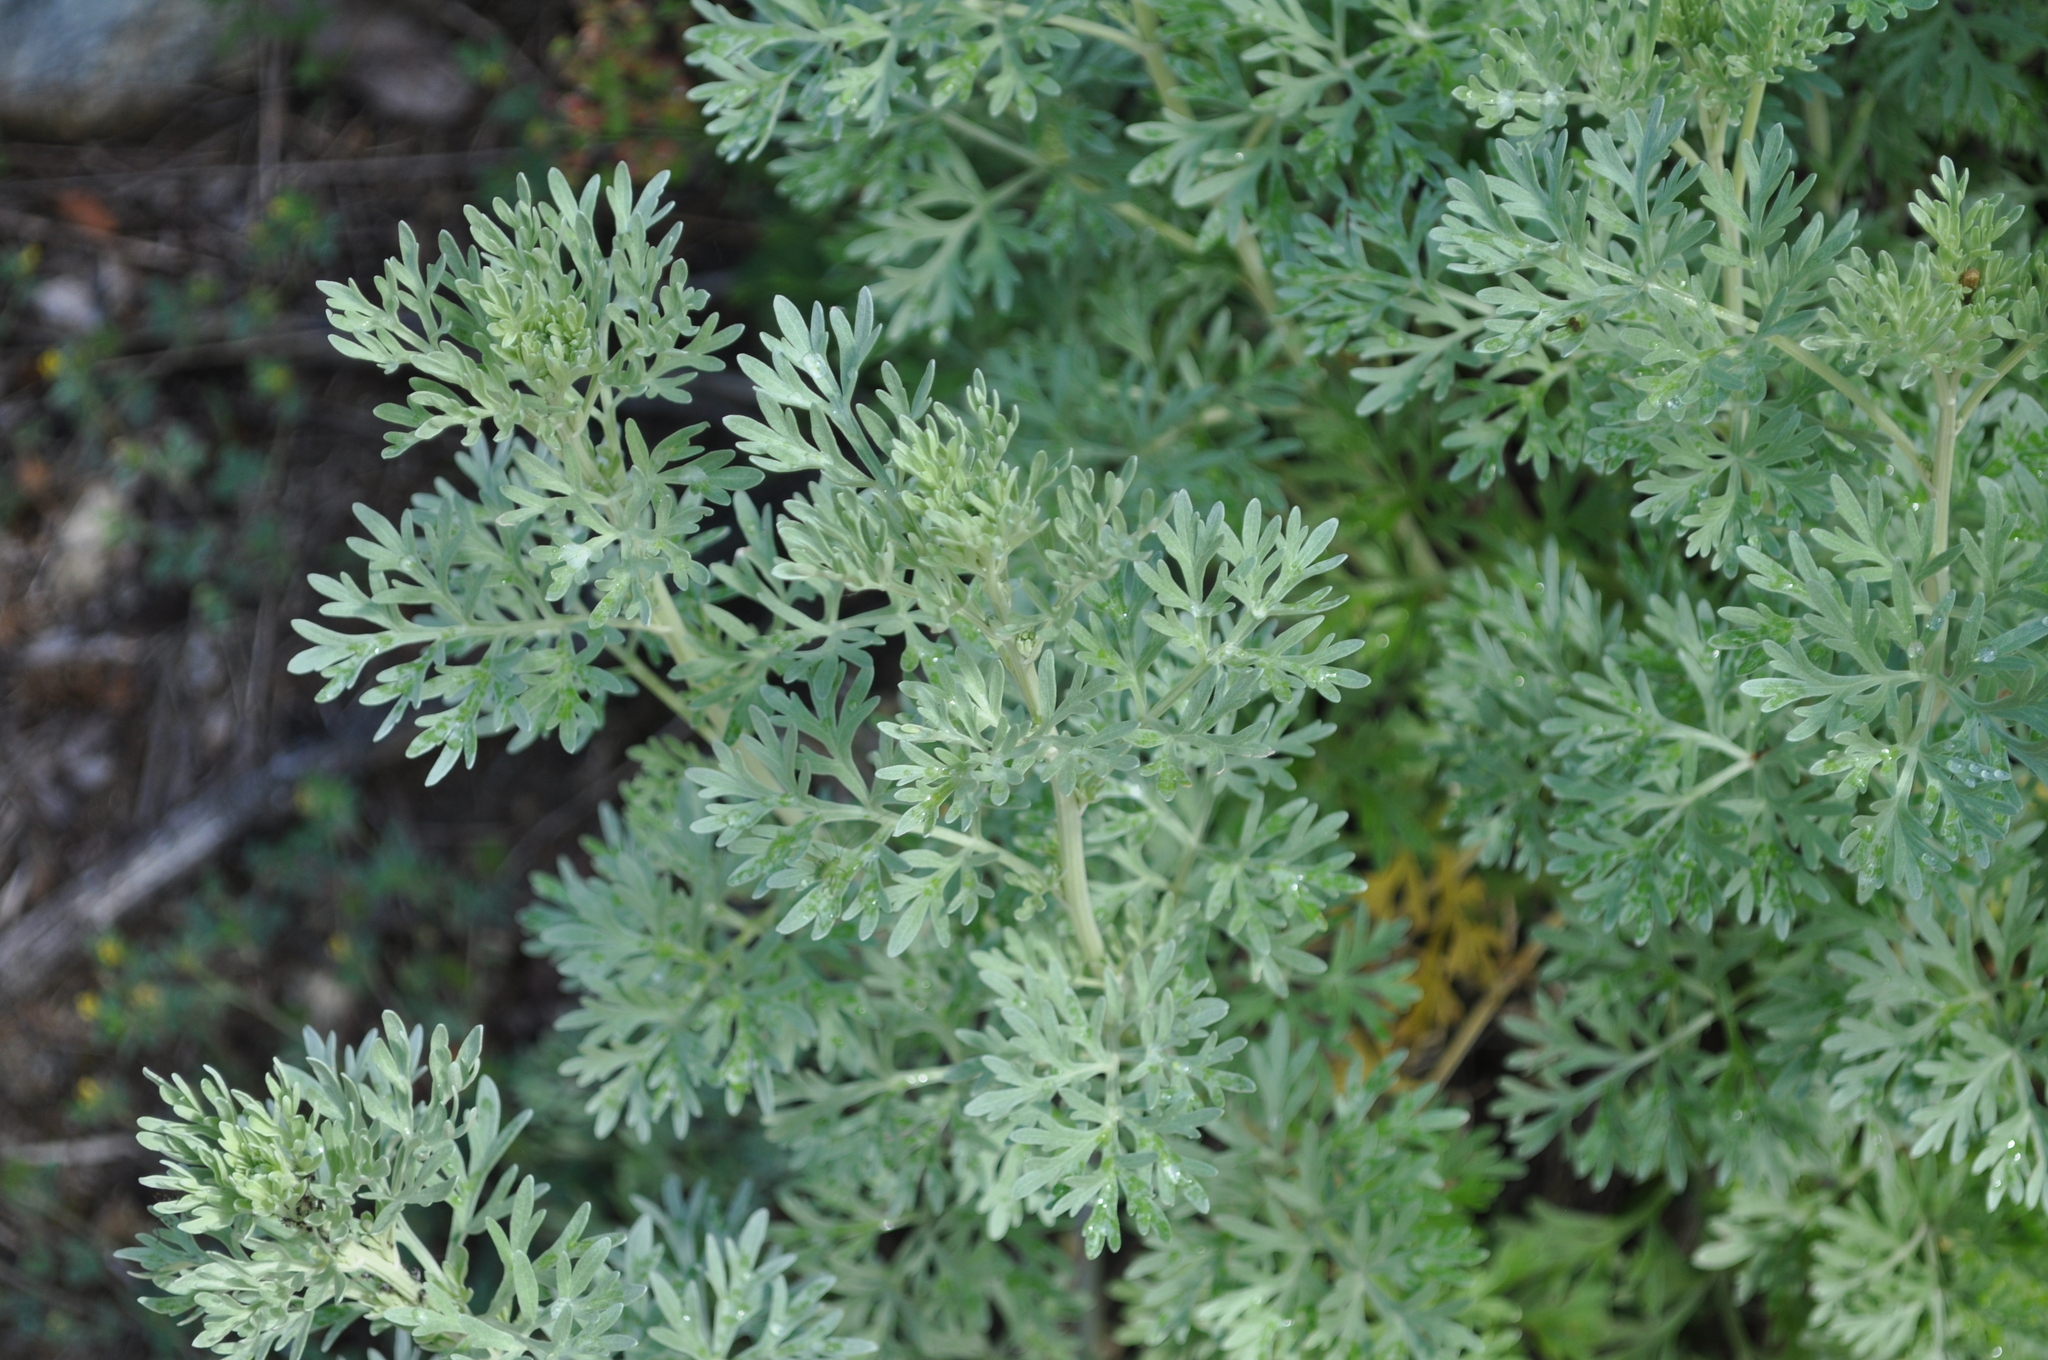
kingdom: Plantae
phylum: Tracheophyta
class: Magnoliopsida
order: Asterales
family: Asteraceae
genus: Artemisia
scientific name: Artemisia absinthium
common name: Wormwood
